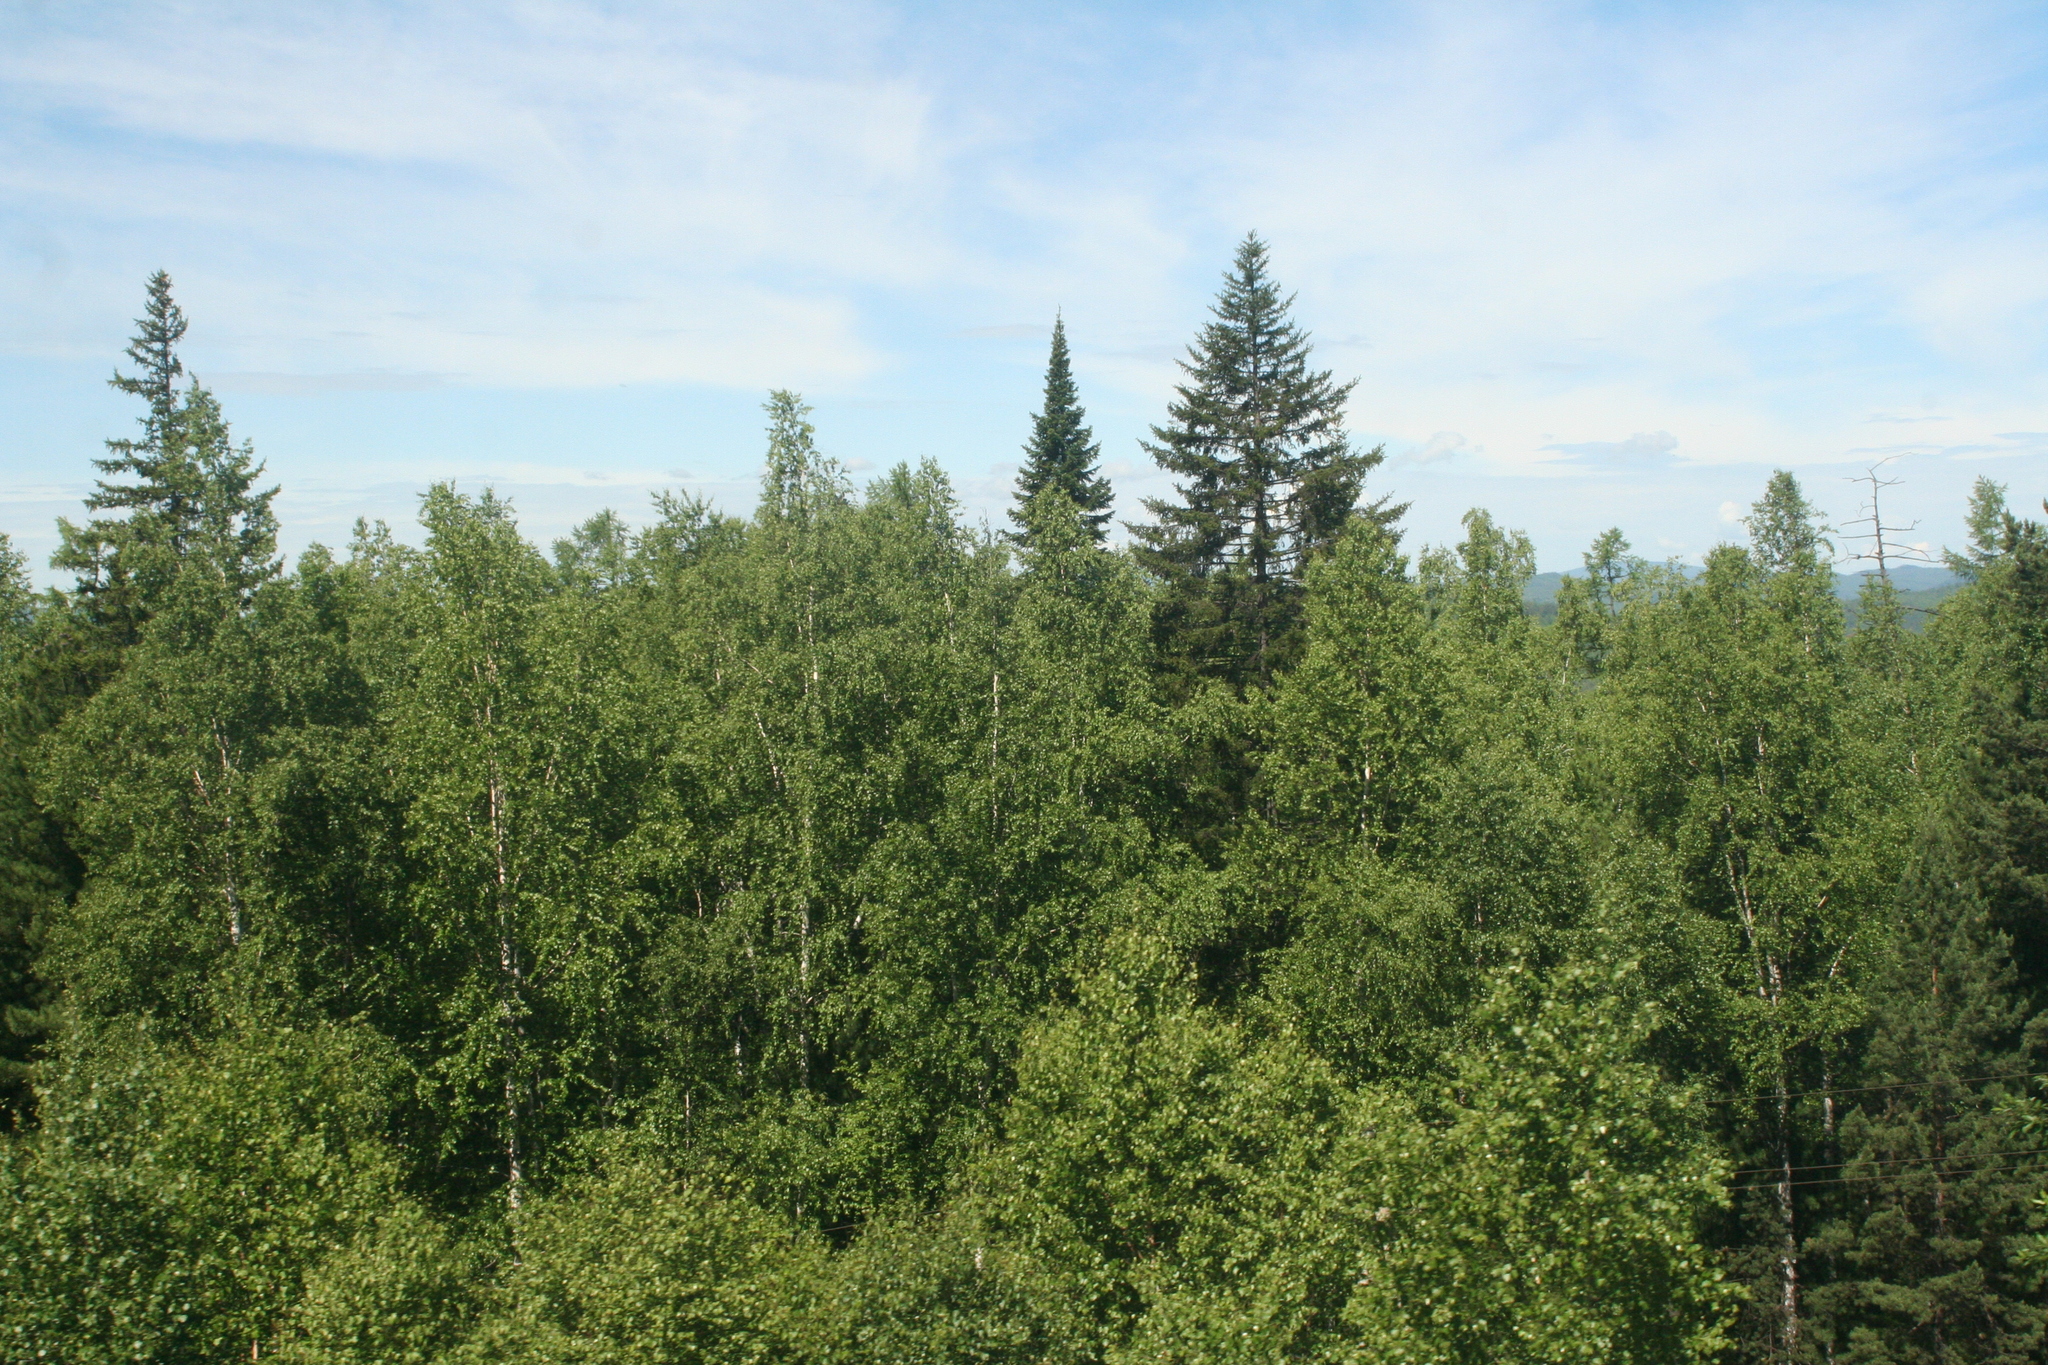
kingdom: Plantae
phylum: Tracheophyta
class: Pinopsida
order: Pinales
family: Pinaceae
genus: Picea
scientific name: Picea obovata
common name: Siberian spruce
